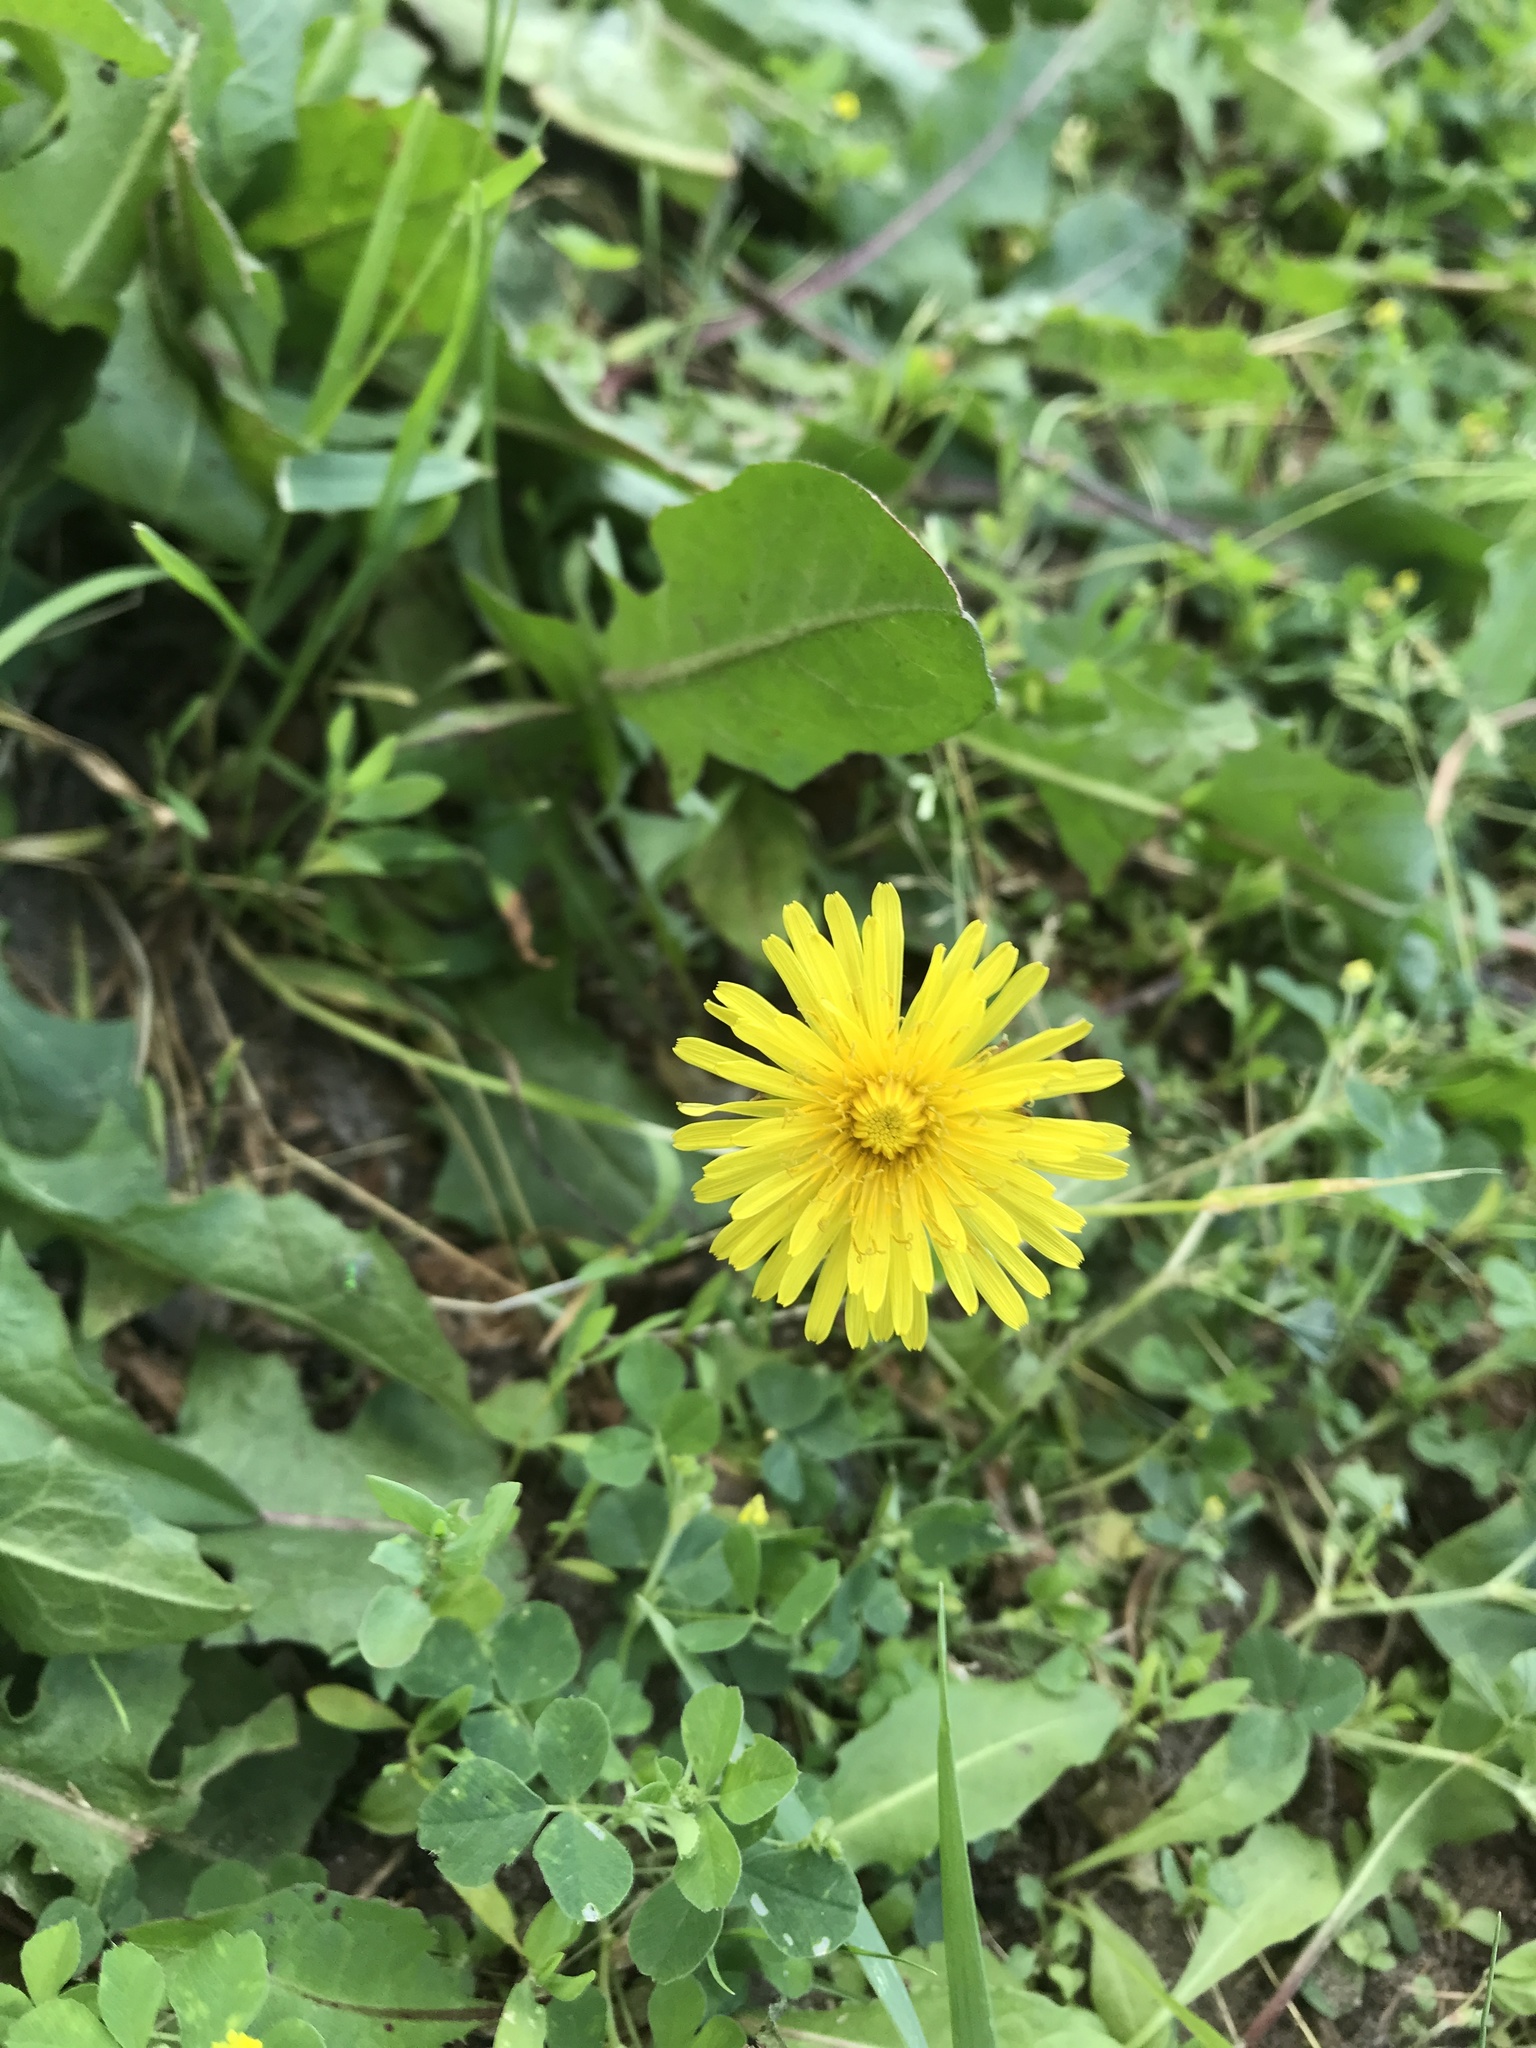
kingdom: Plantae
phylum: Tracheophyta
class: Magnoliopsida
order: Asterales
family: Asteraceae
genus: Taraxacum
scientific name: Taraxacum officinale
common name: Common dandelion
